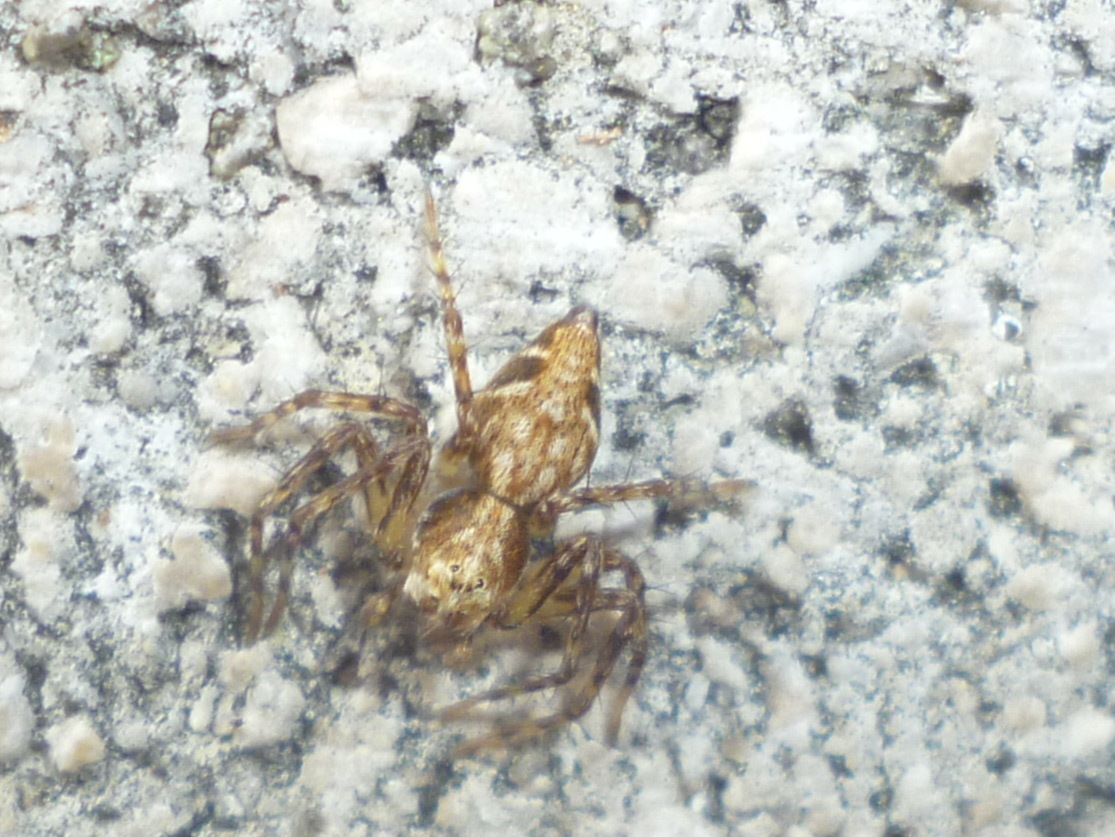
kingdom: Animalia
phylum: Arthropoda
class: Arachnida
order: Araneae
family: Oxyopidae
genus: Oxyopes
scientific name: Oxyopes scalaris
